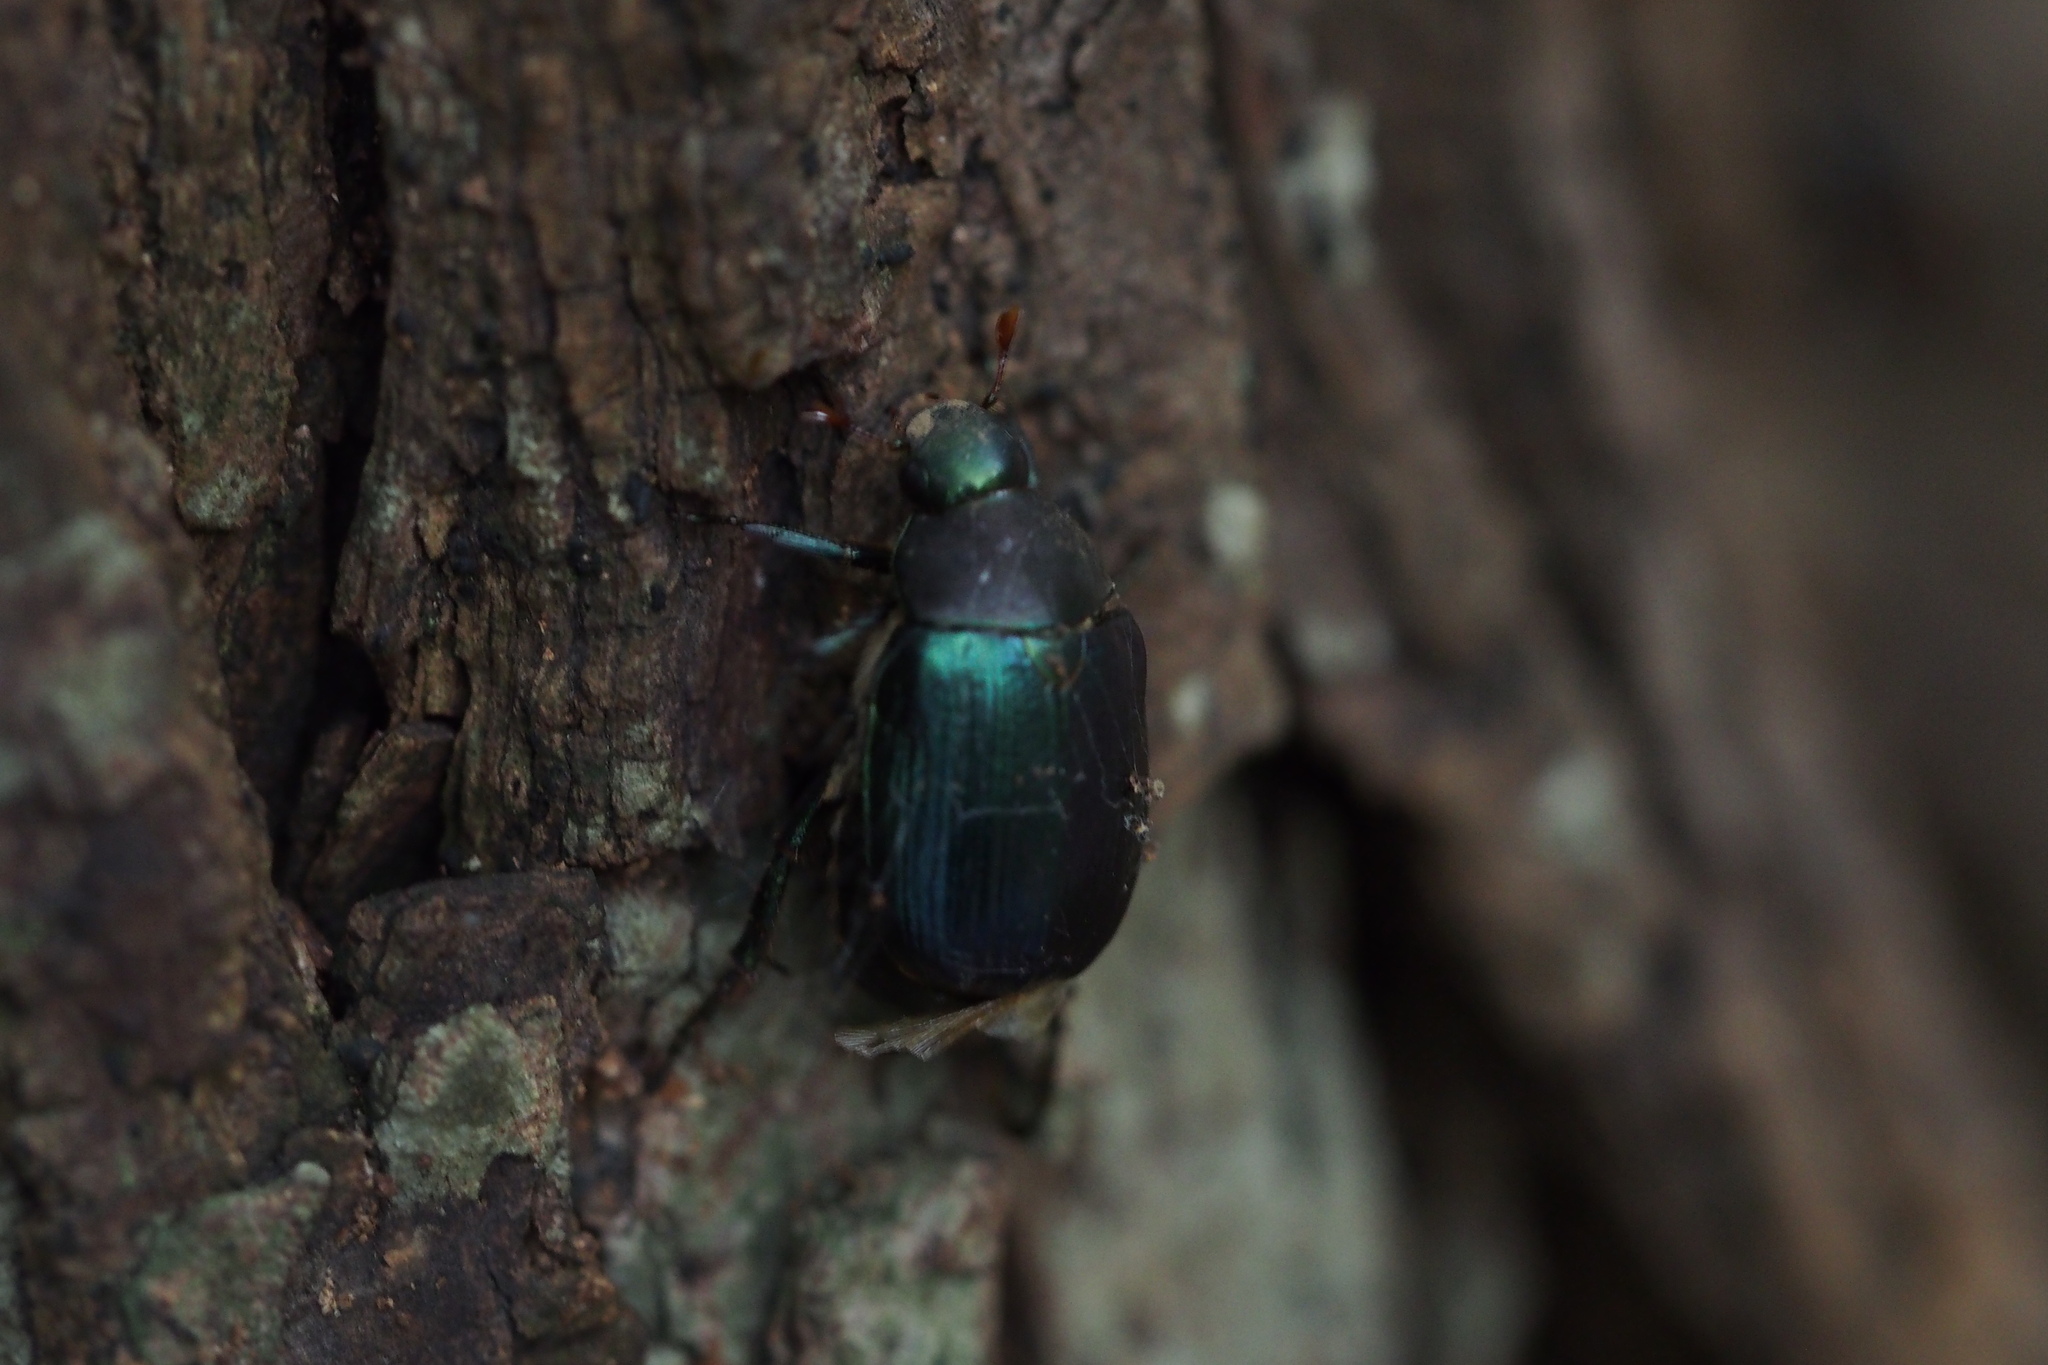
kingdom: Animalia
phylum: Arthropoda
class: Insecta
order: Coleoptera
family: Scarabaeidae
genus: Anomala
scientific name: Anomala rufocuprea
